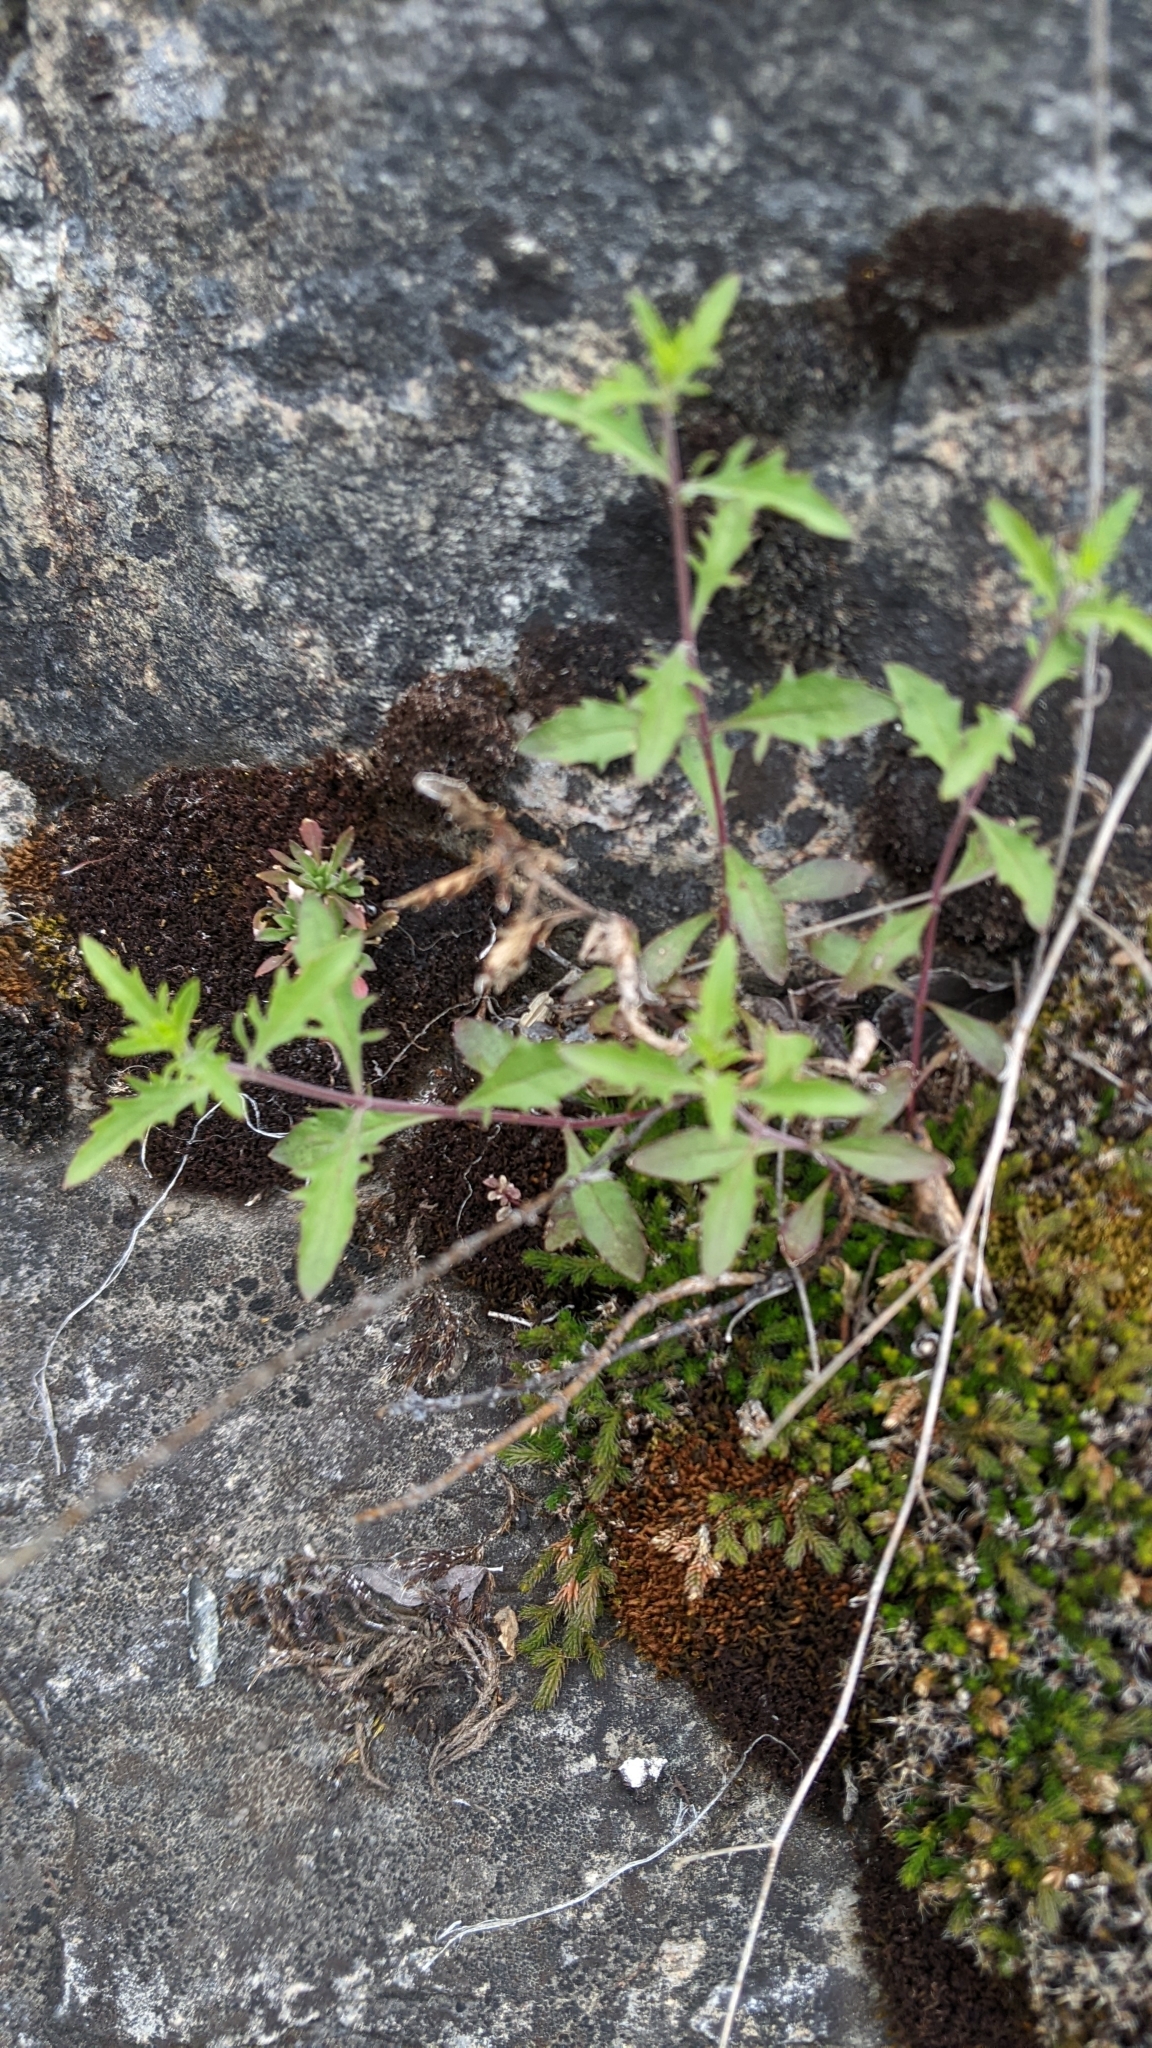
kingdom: Plantae
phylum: Tracheophyta
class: Magnoliopsida
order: Lamiales
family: Plantaginaceae
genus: Penstemon
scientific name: Penstemon richardsonii
